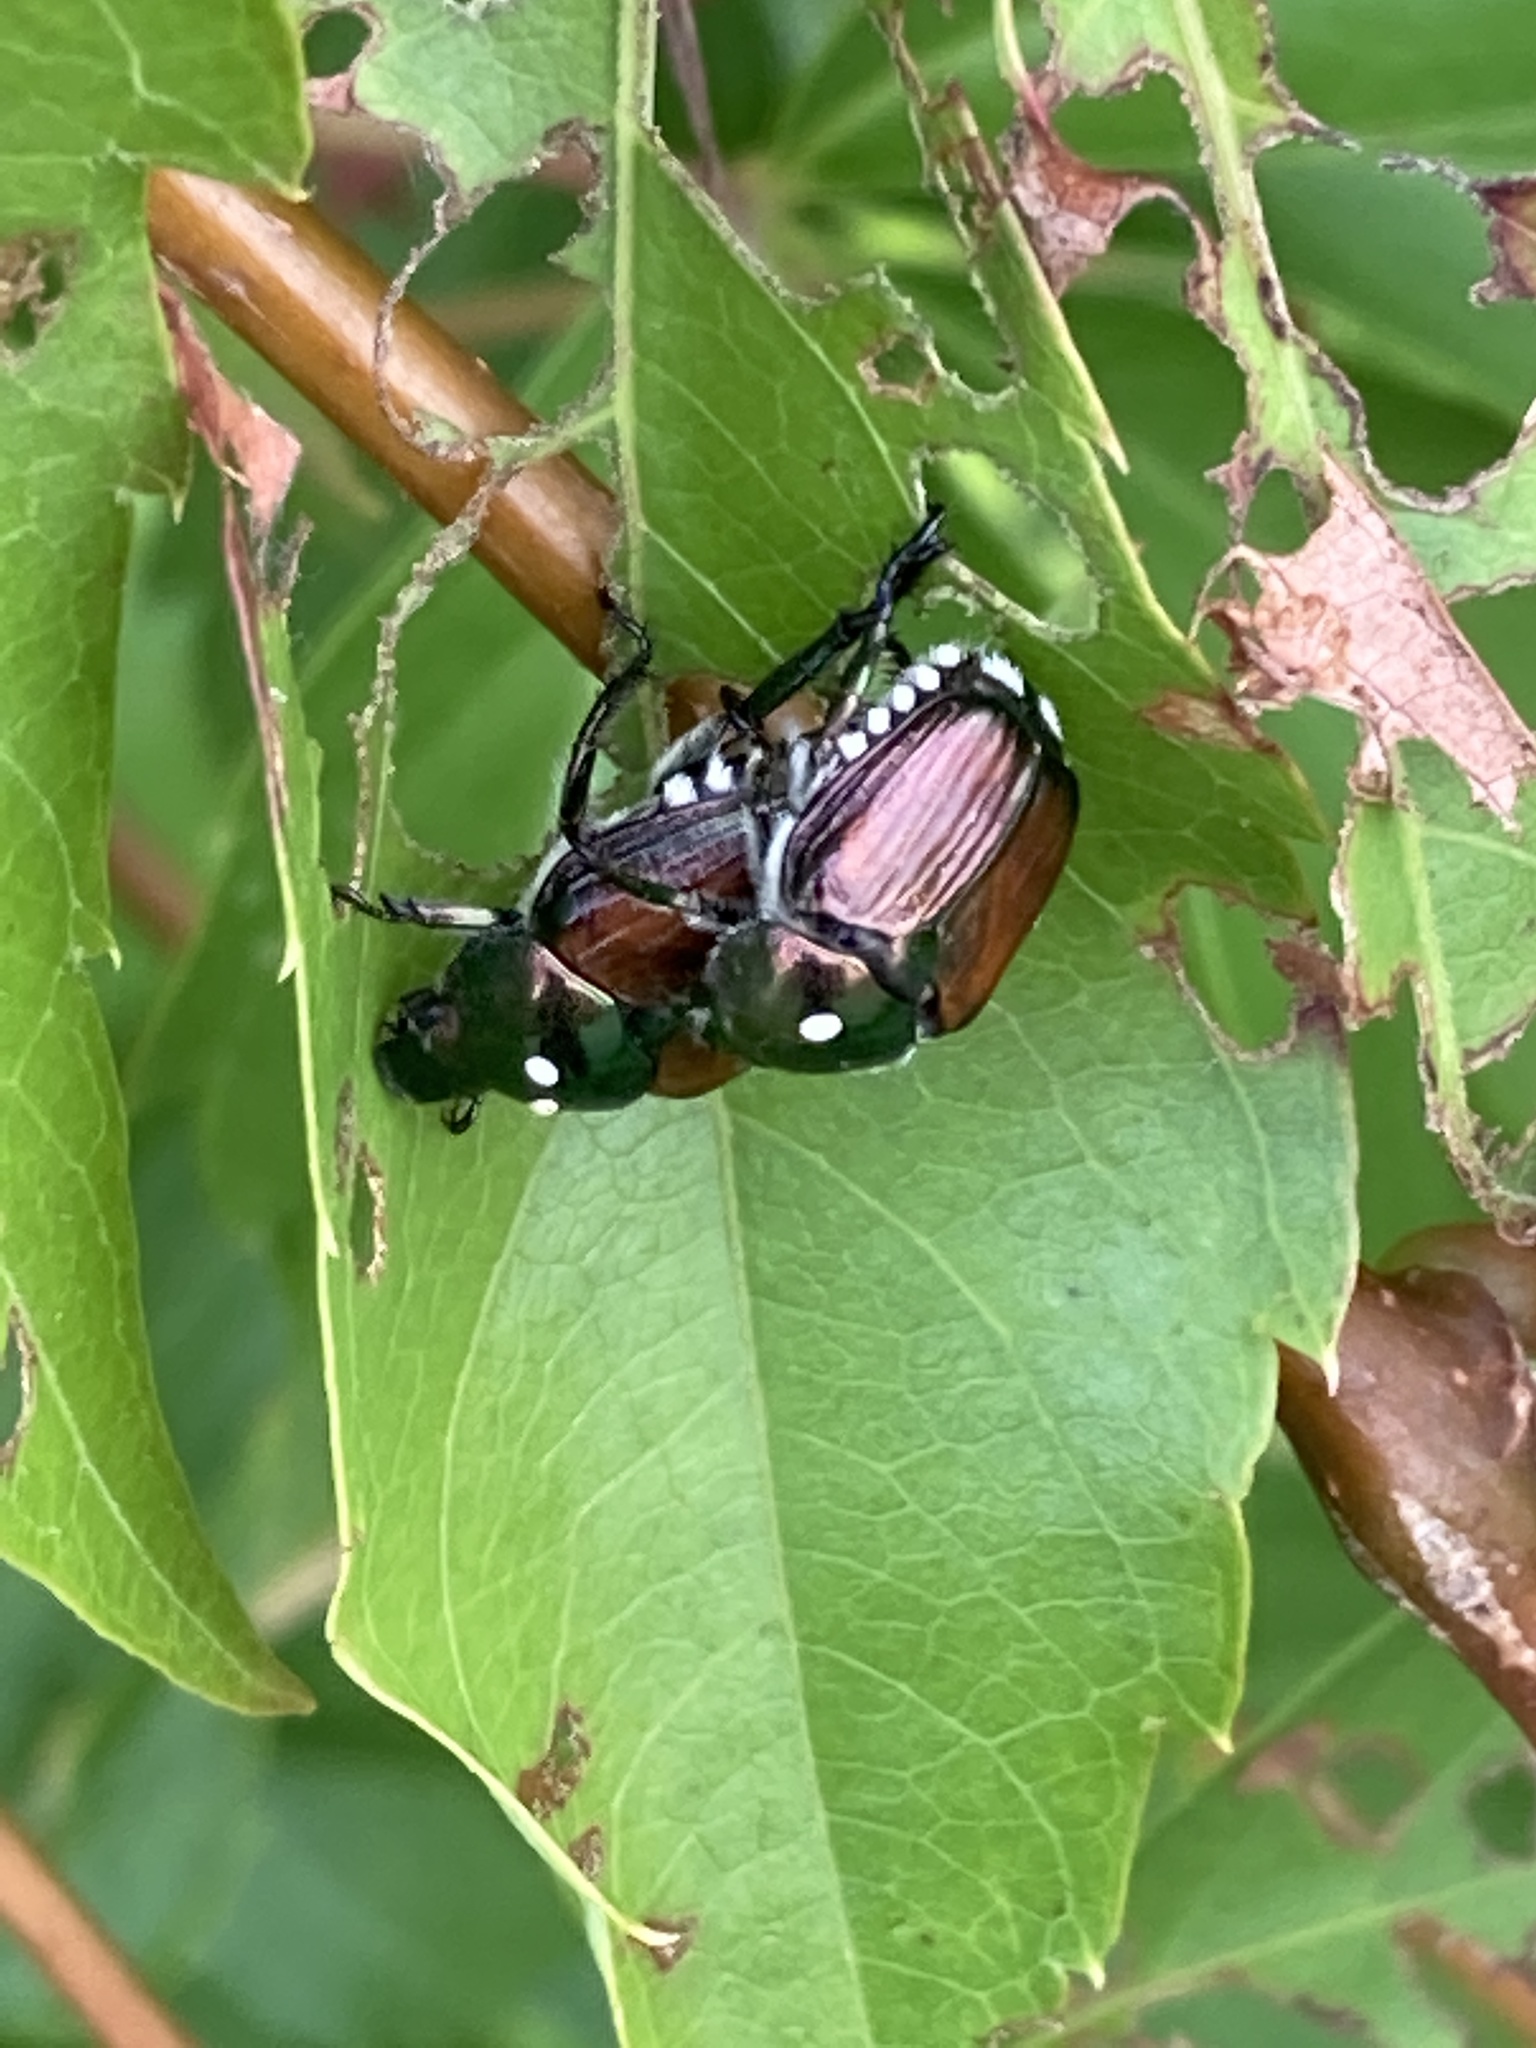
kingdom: Animalia
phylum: Arthropoda
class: Insecta
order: Coleoptera
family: Scarabaeidae
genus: Popillia
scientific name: Popillia japonica
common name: Japanese beetle
